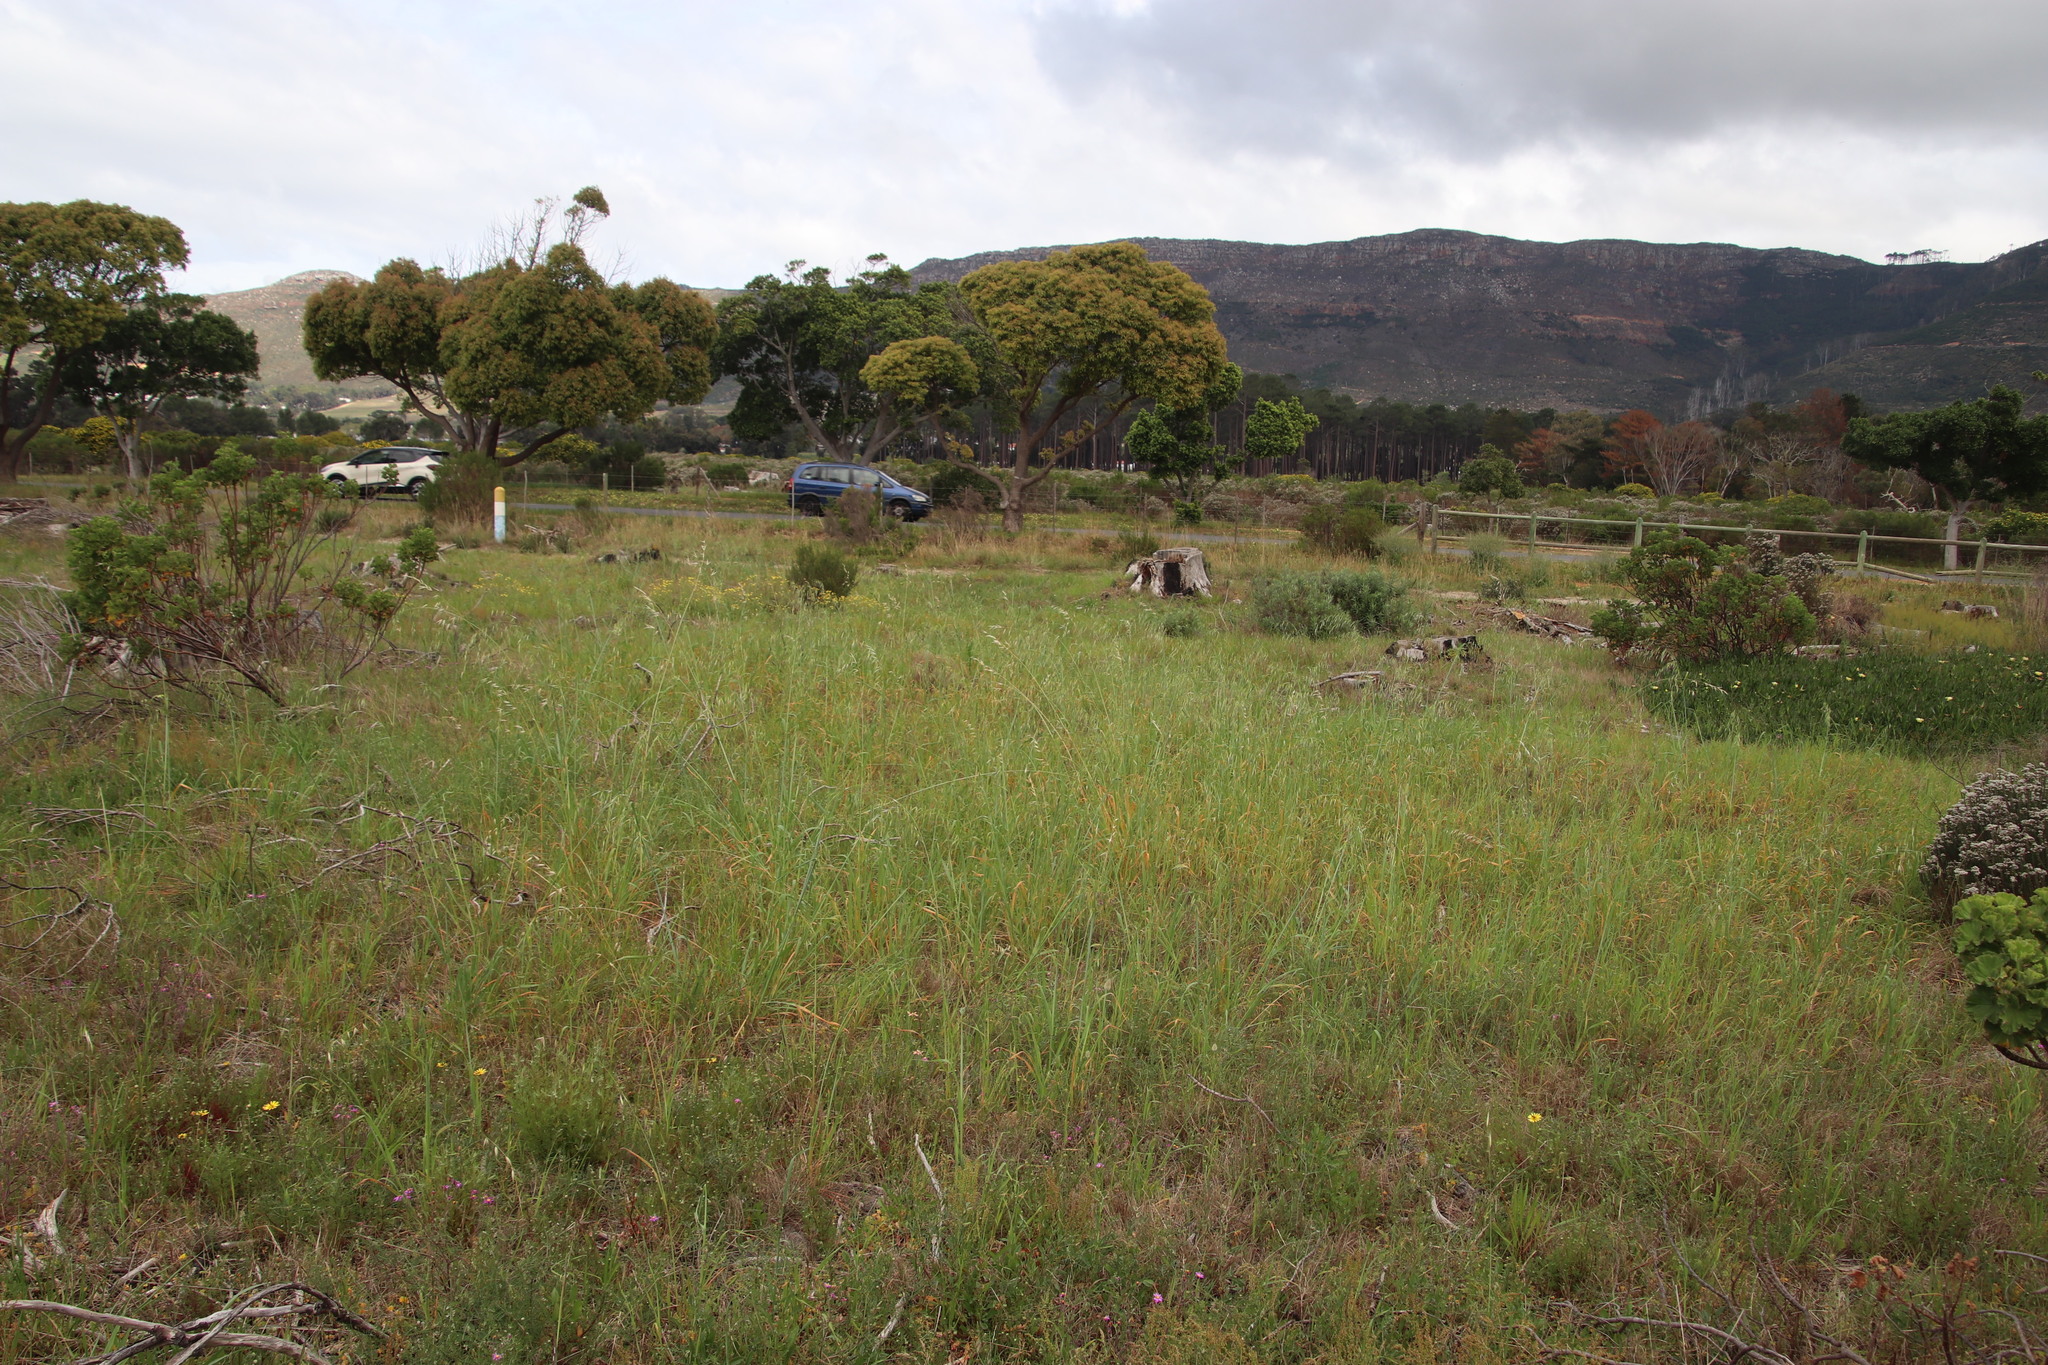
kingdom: Plantae
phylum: Tracheophyta
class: Liliopsida
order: Poales
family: Poaceae
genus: Avena
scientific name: Avena fatua
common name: Wild oat
